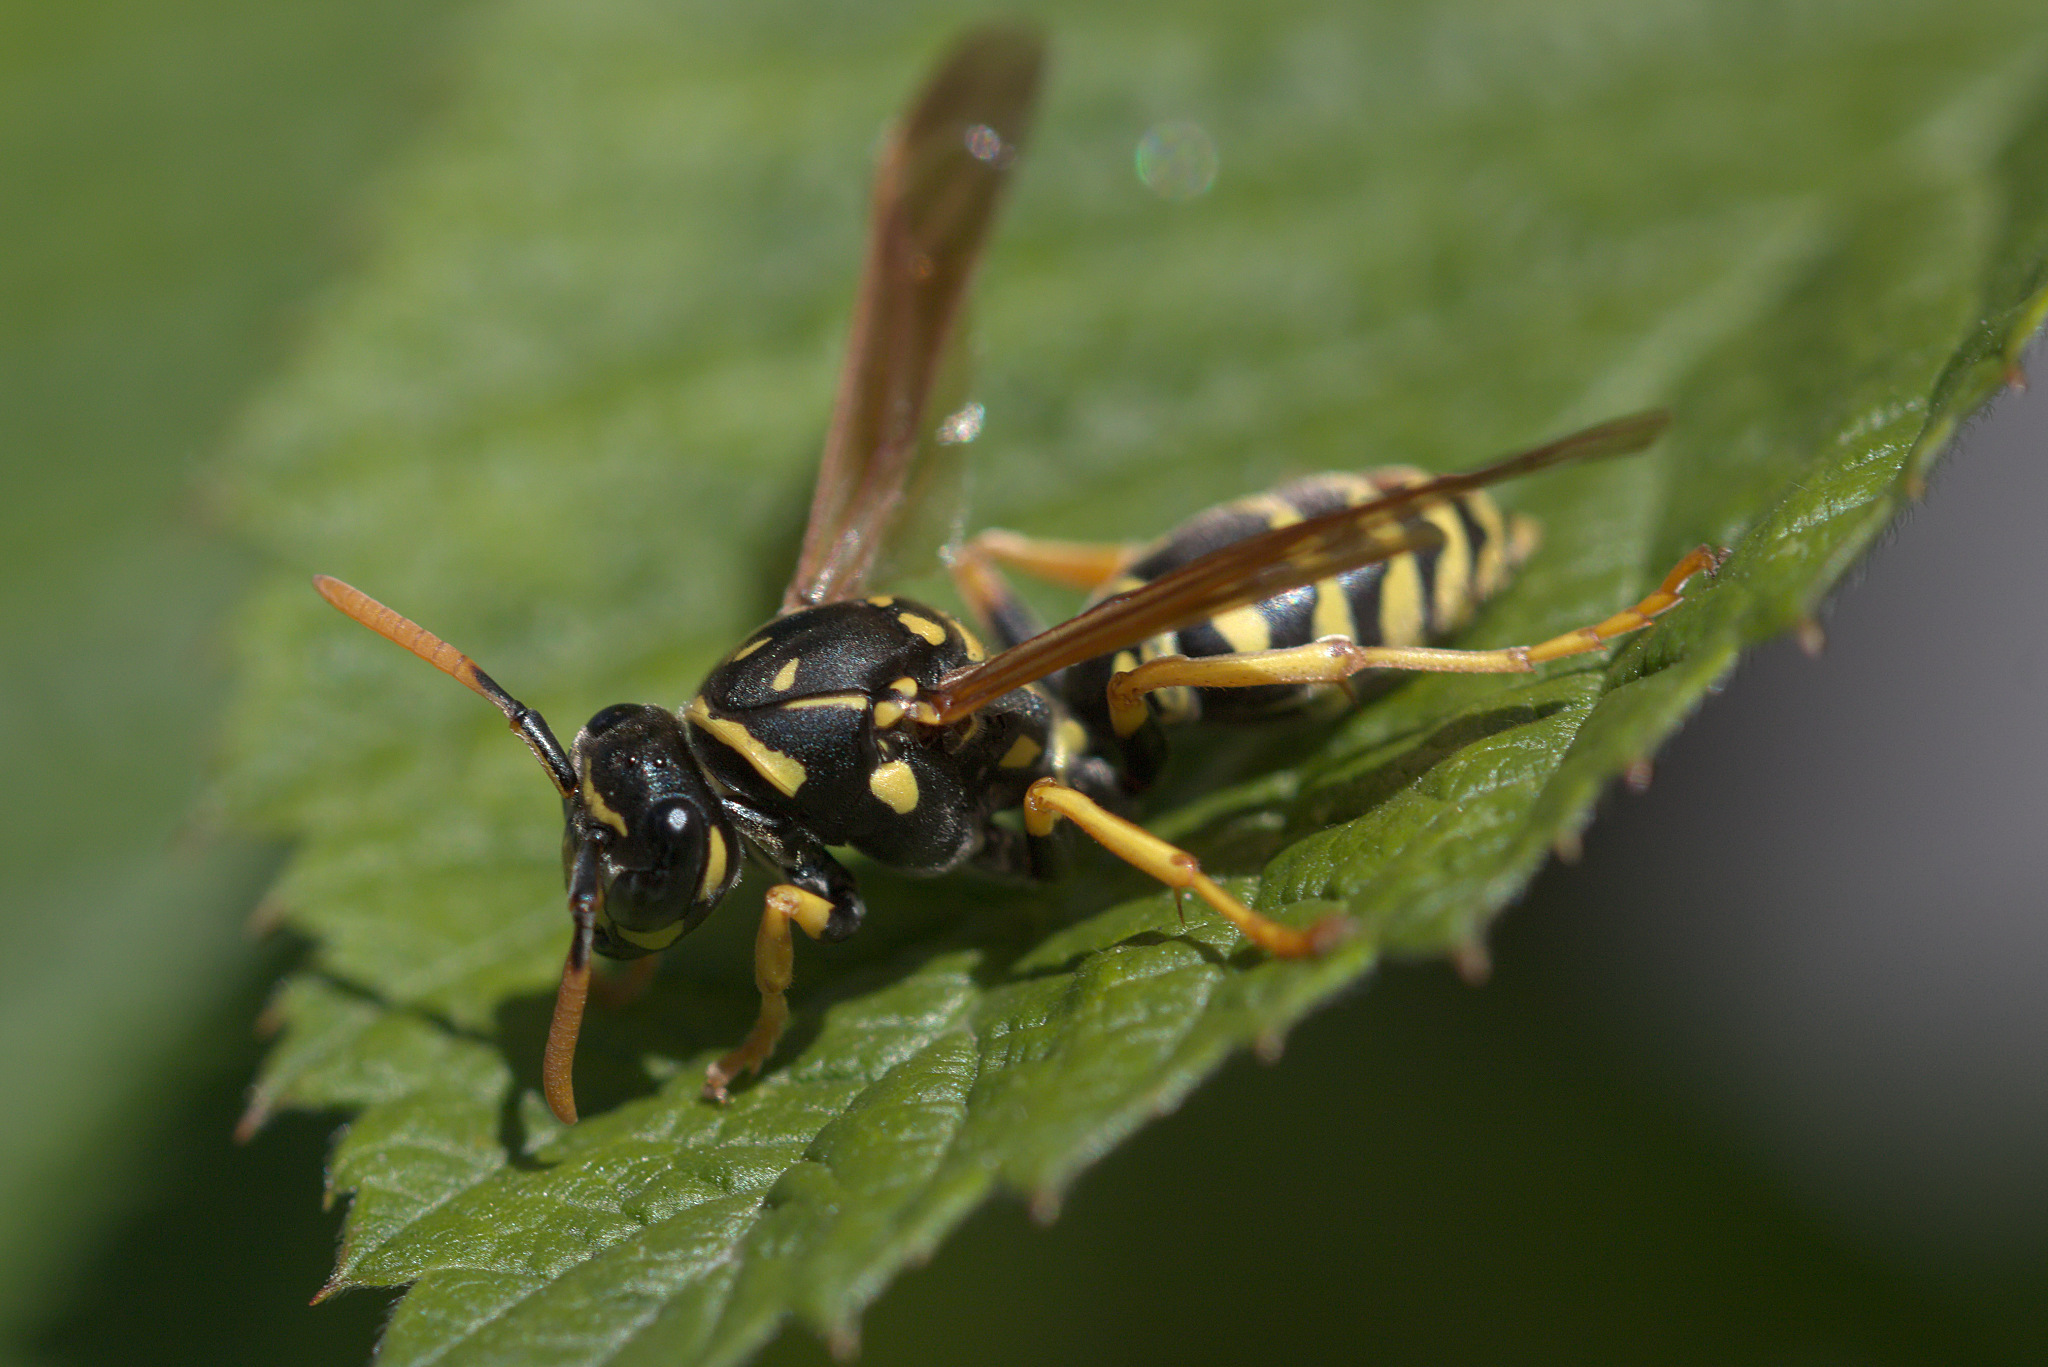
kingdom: Animalia
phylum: Arthropoda
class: Insecta
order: Hymenoptera
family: Eumenidae
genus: Polistes
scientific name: Polistes dominula
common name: Paper wasp
